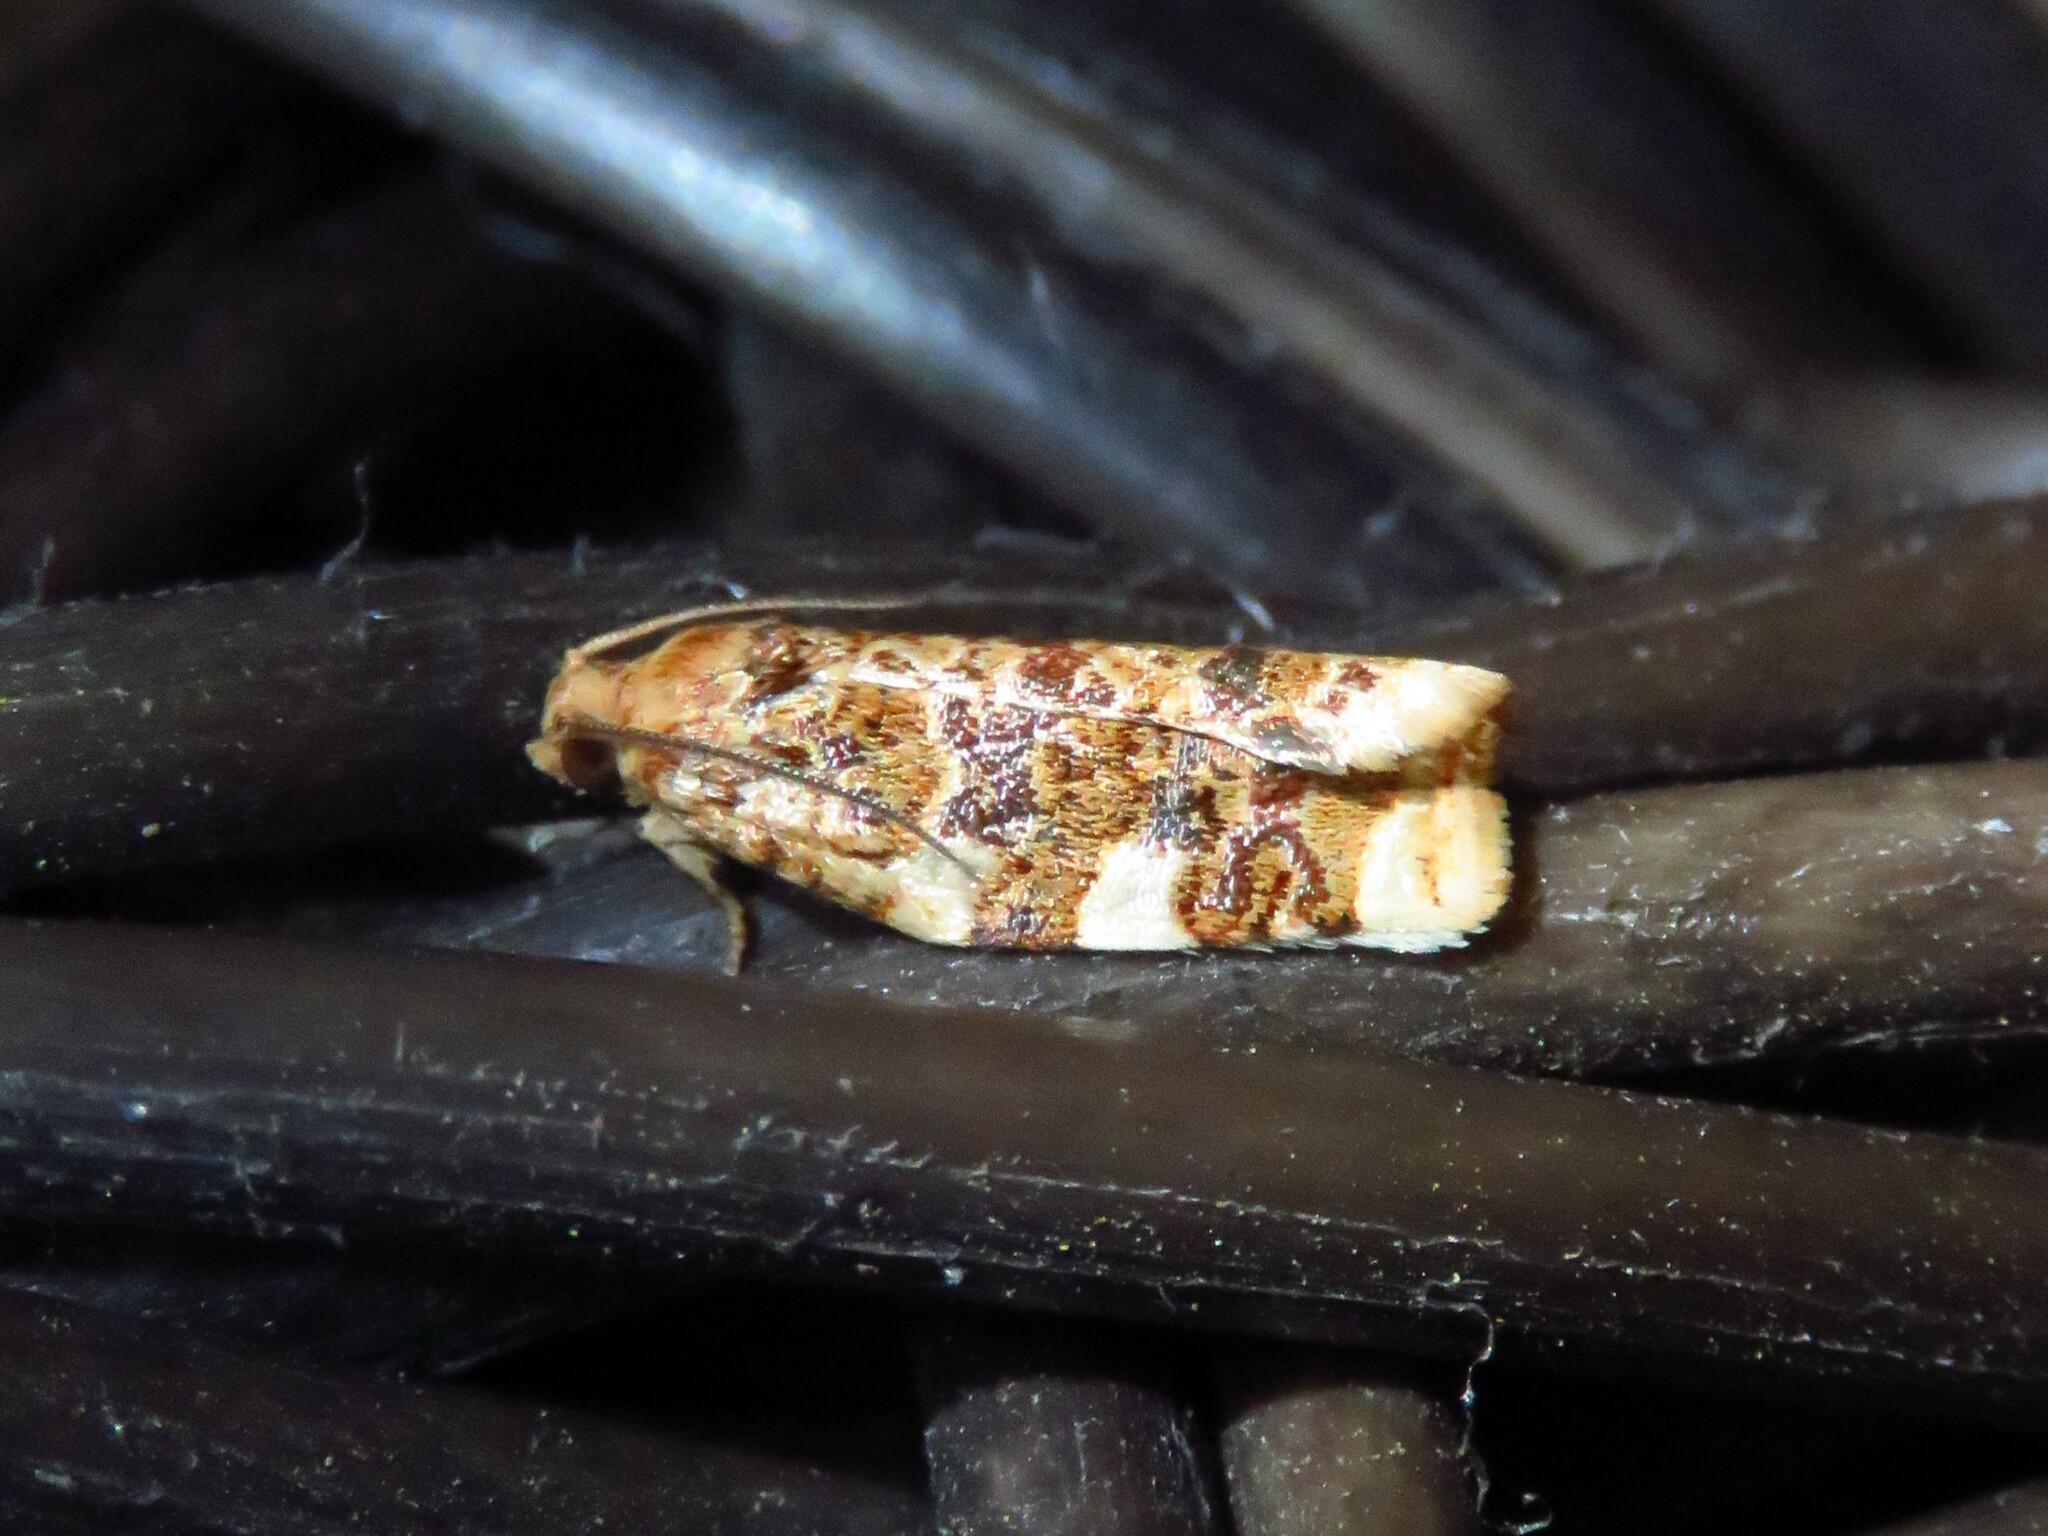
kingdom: Animalia
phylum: Arthropoda
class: Insecta
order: Lepidoptera
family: Tortricidae
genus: Archips
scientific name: Archips argyrospila
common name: Fruit-tree leafroller moth
